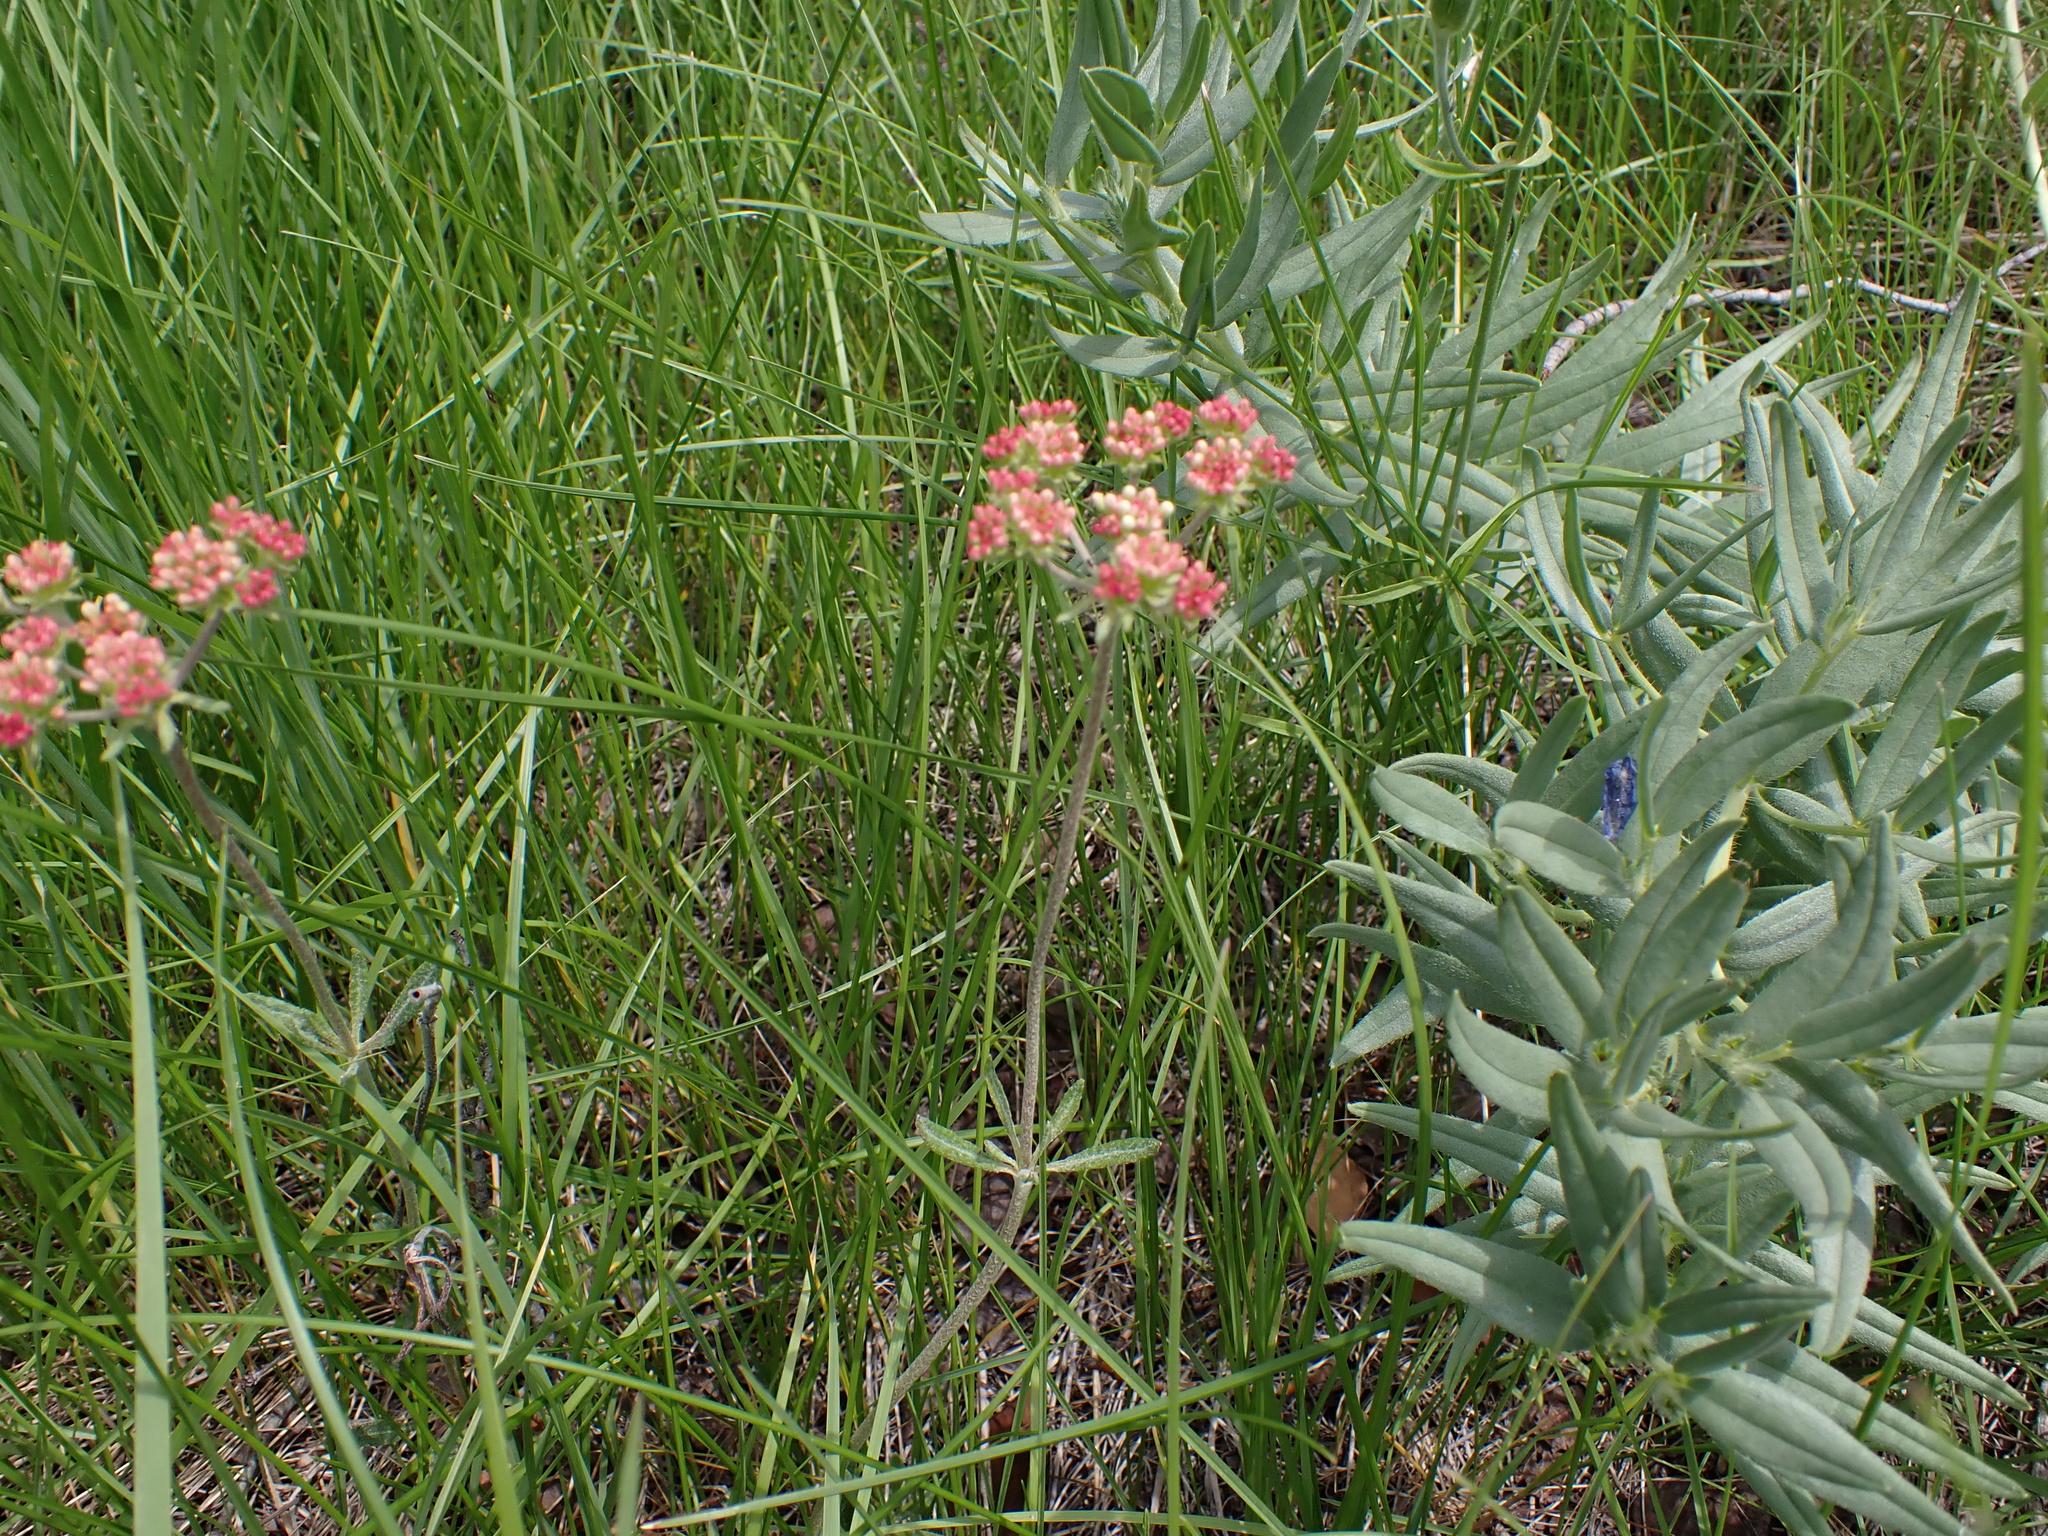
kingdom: Plantae
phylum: Tracheophyta
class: Magnoliopsida
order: Caryophyllales
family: Polygonaceae
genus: Eriogonum
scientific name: Eriogonum heracleoides
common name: Wyeth's buckwheat
